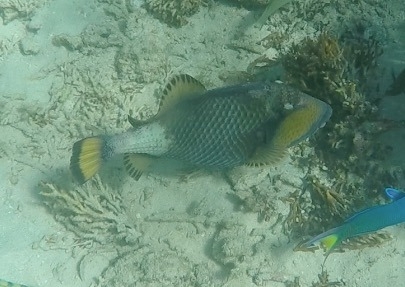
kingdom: Animalia
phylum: Chordata
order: Tetraodontiformes
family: Balistidae
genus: Balistoides
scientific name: Balistoides viridescens
